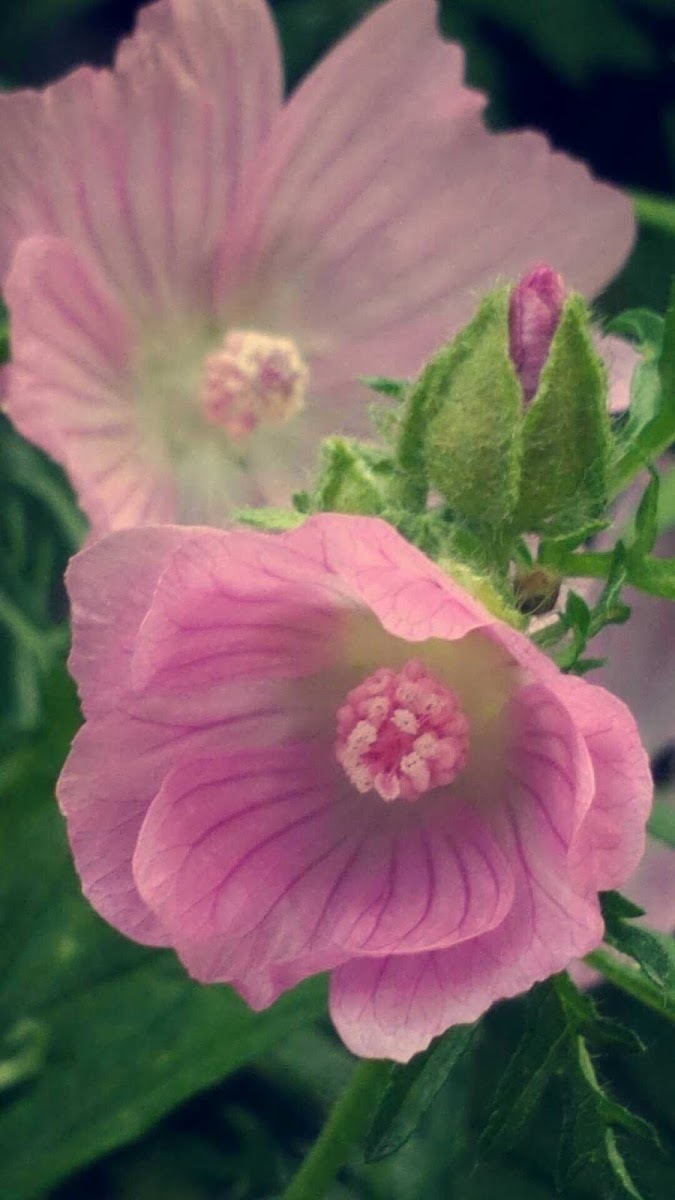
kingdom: Plantae
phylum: Tracheophyta
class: Magnoliopsida
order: Malvales
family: Malvaceae
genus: Malva
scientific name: Malva moschata
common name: Musk mallow
